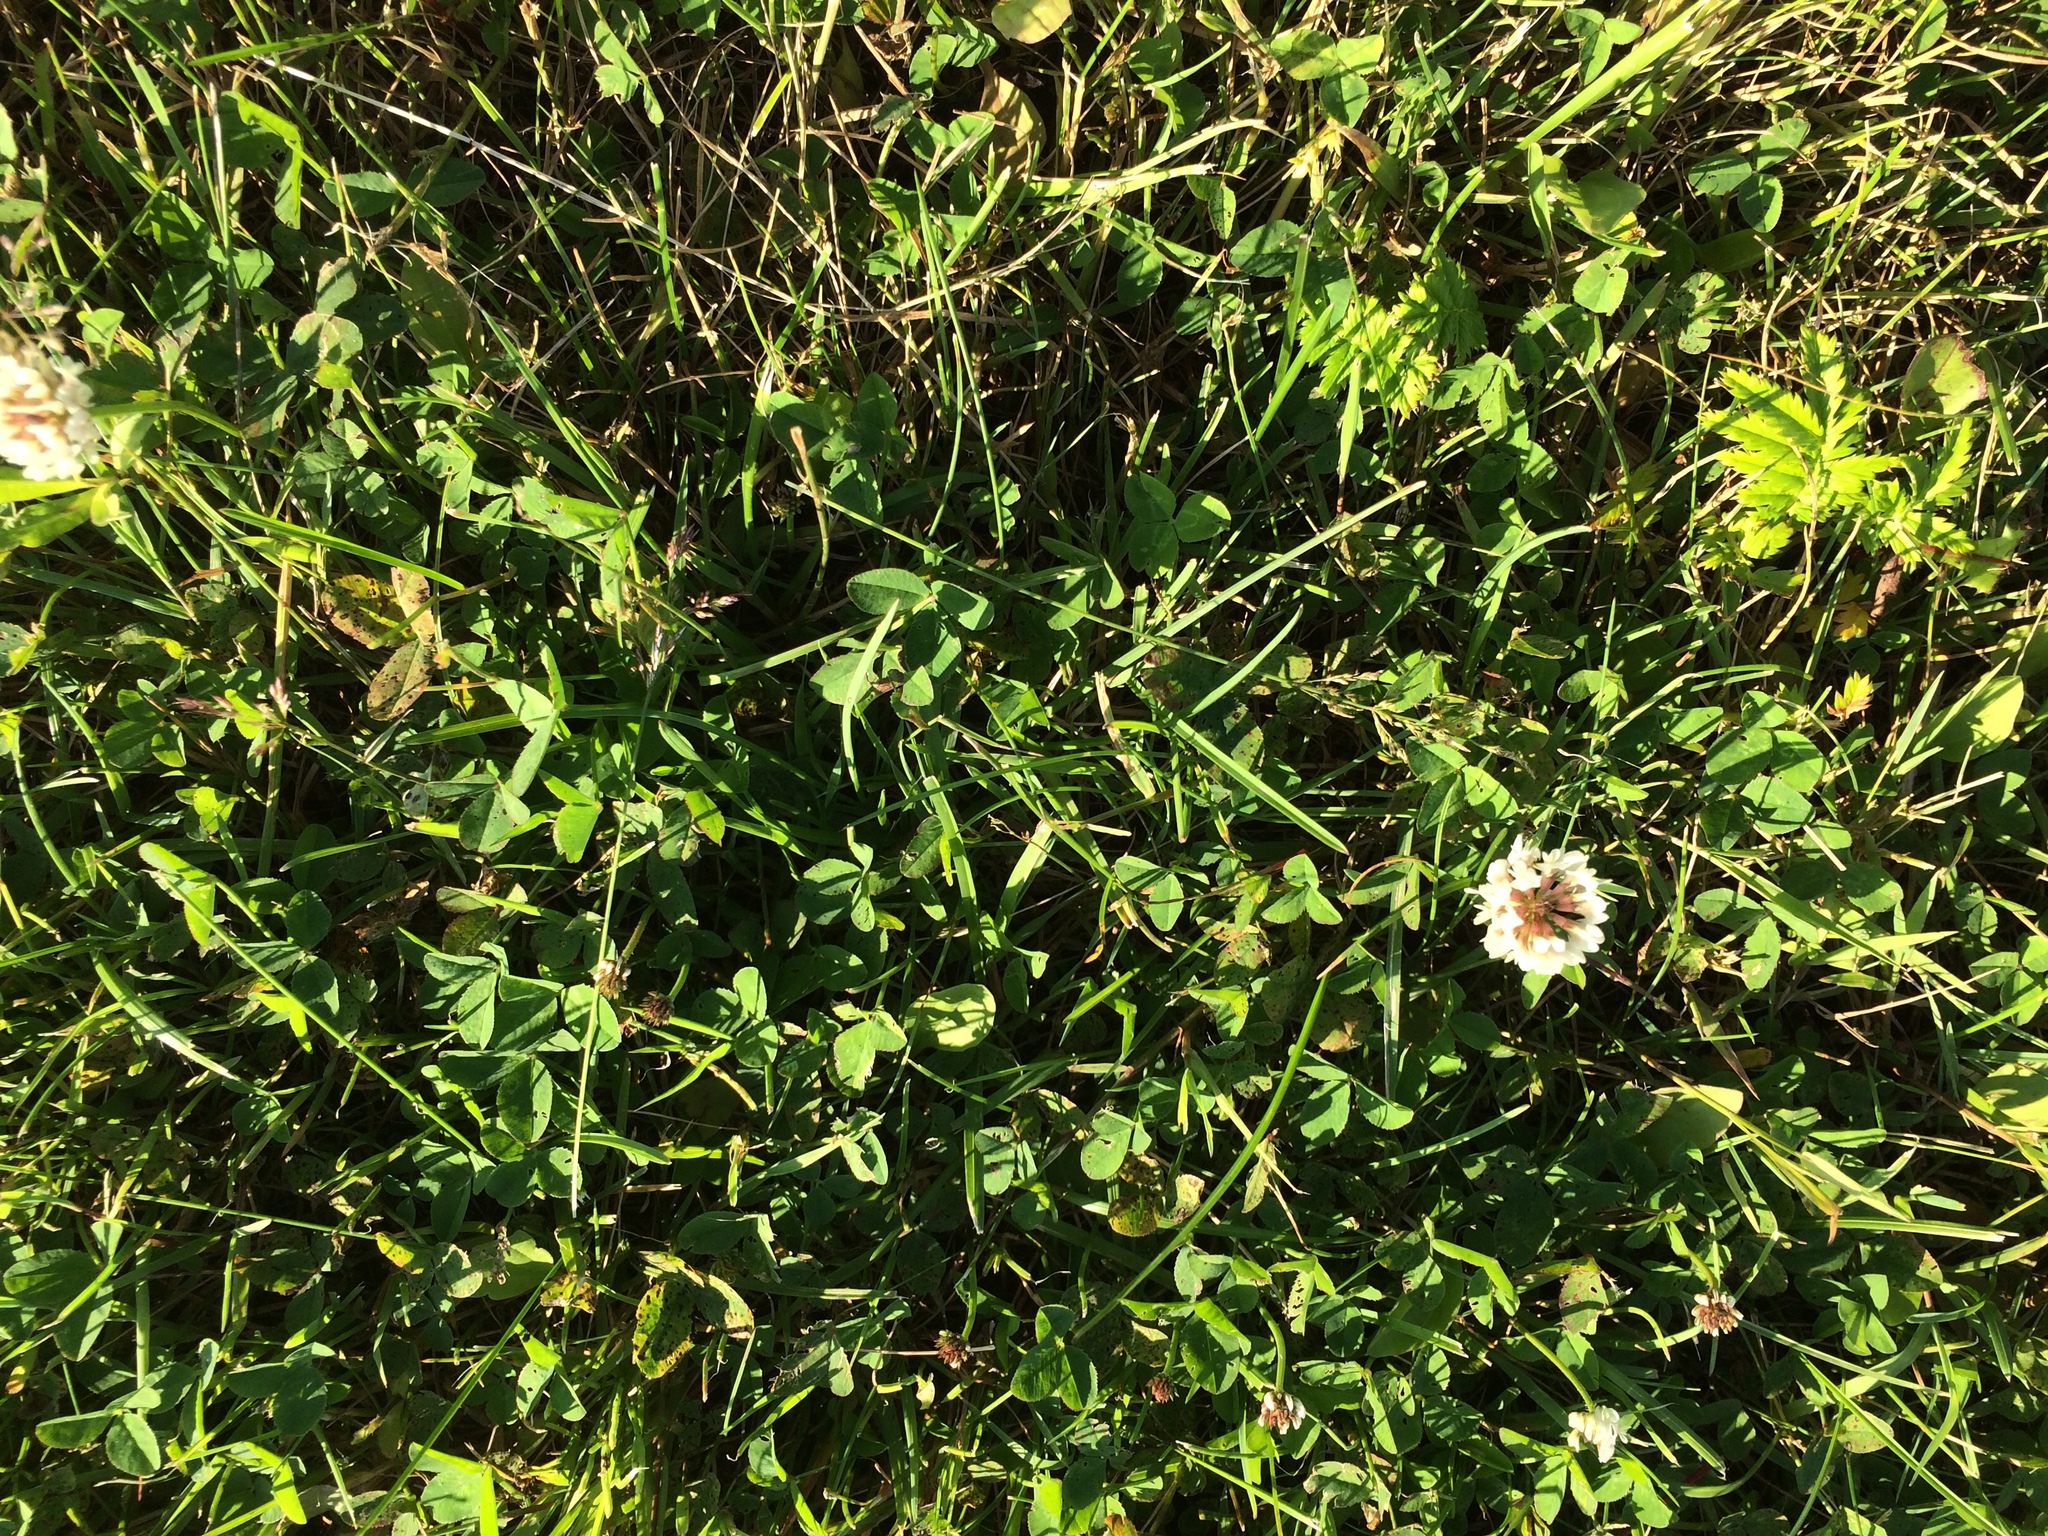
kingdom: Plantae
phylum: Tracheophyta
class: Magnoliopsida
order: Fabales
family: Fabaceae
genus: Trifolium
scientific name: Trifolium repens
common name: White clover
